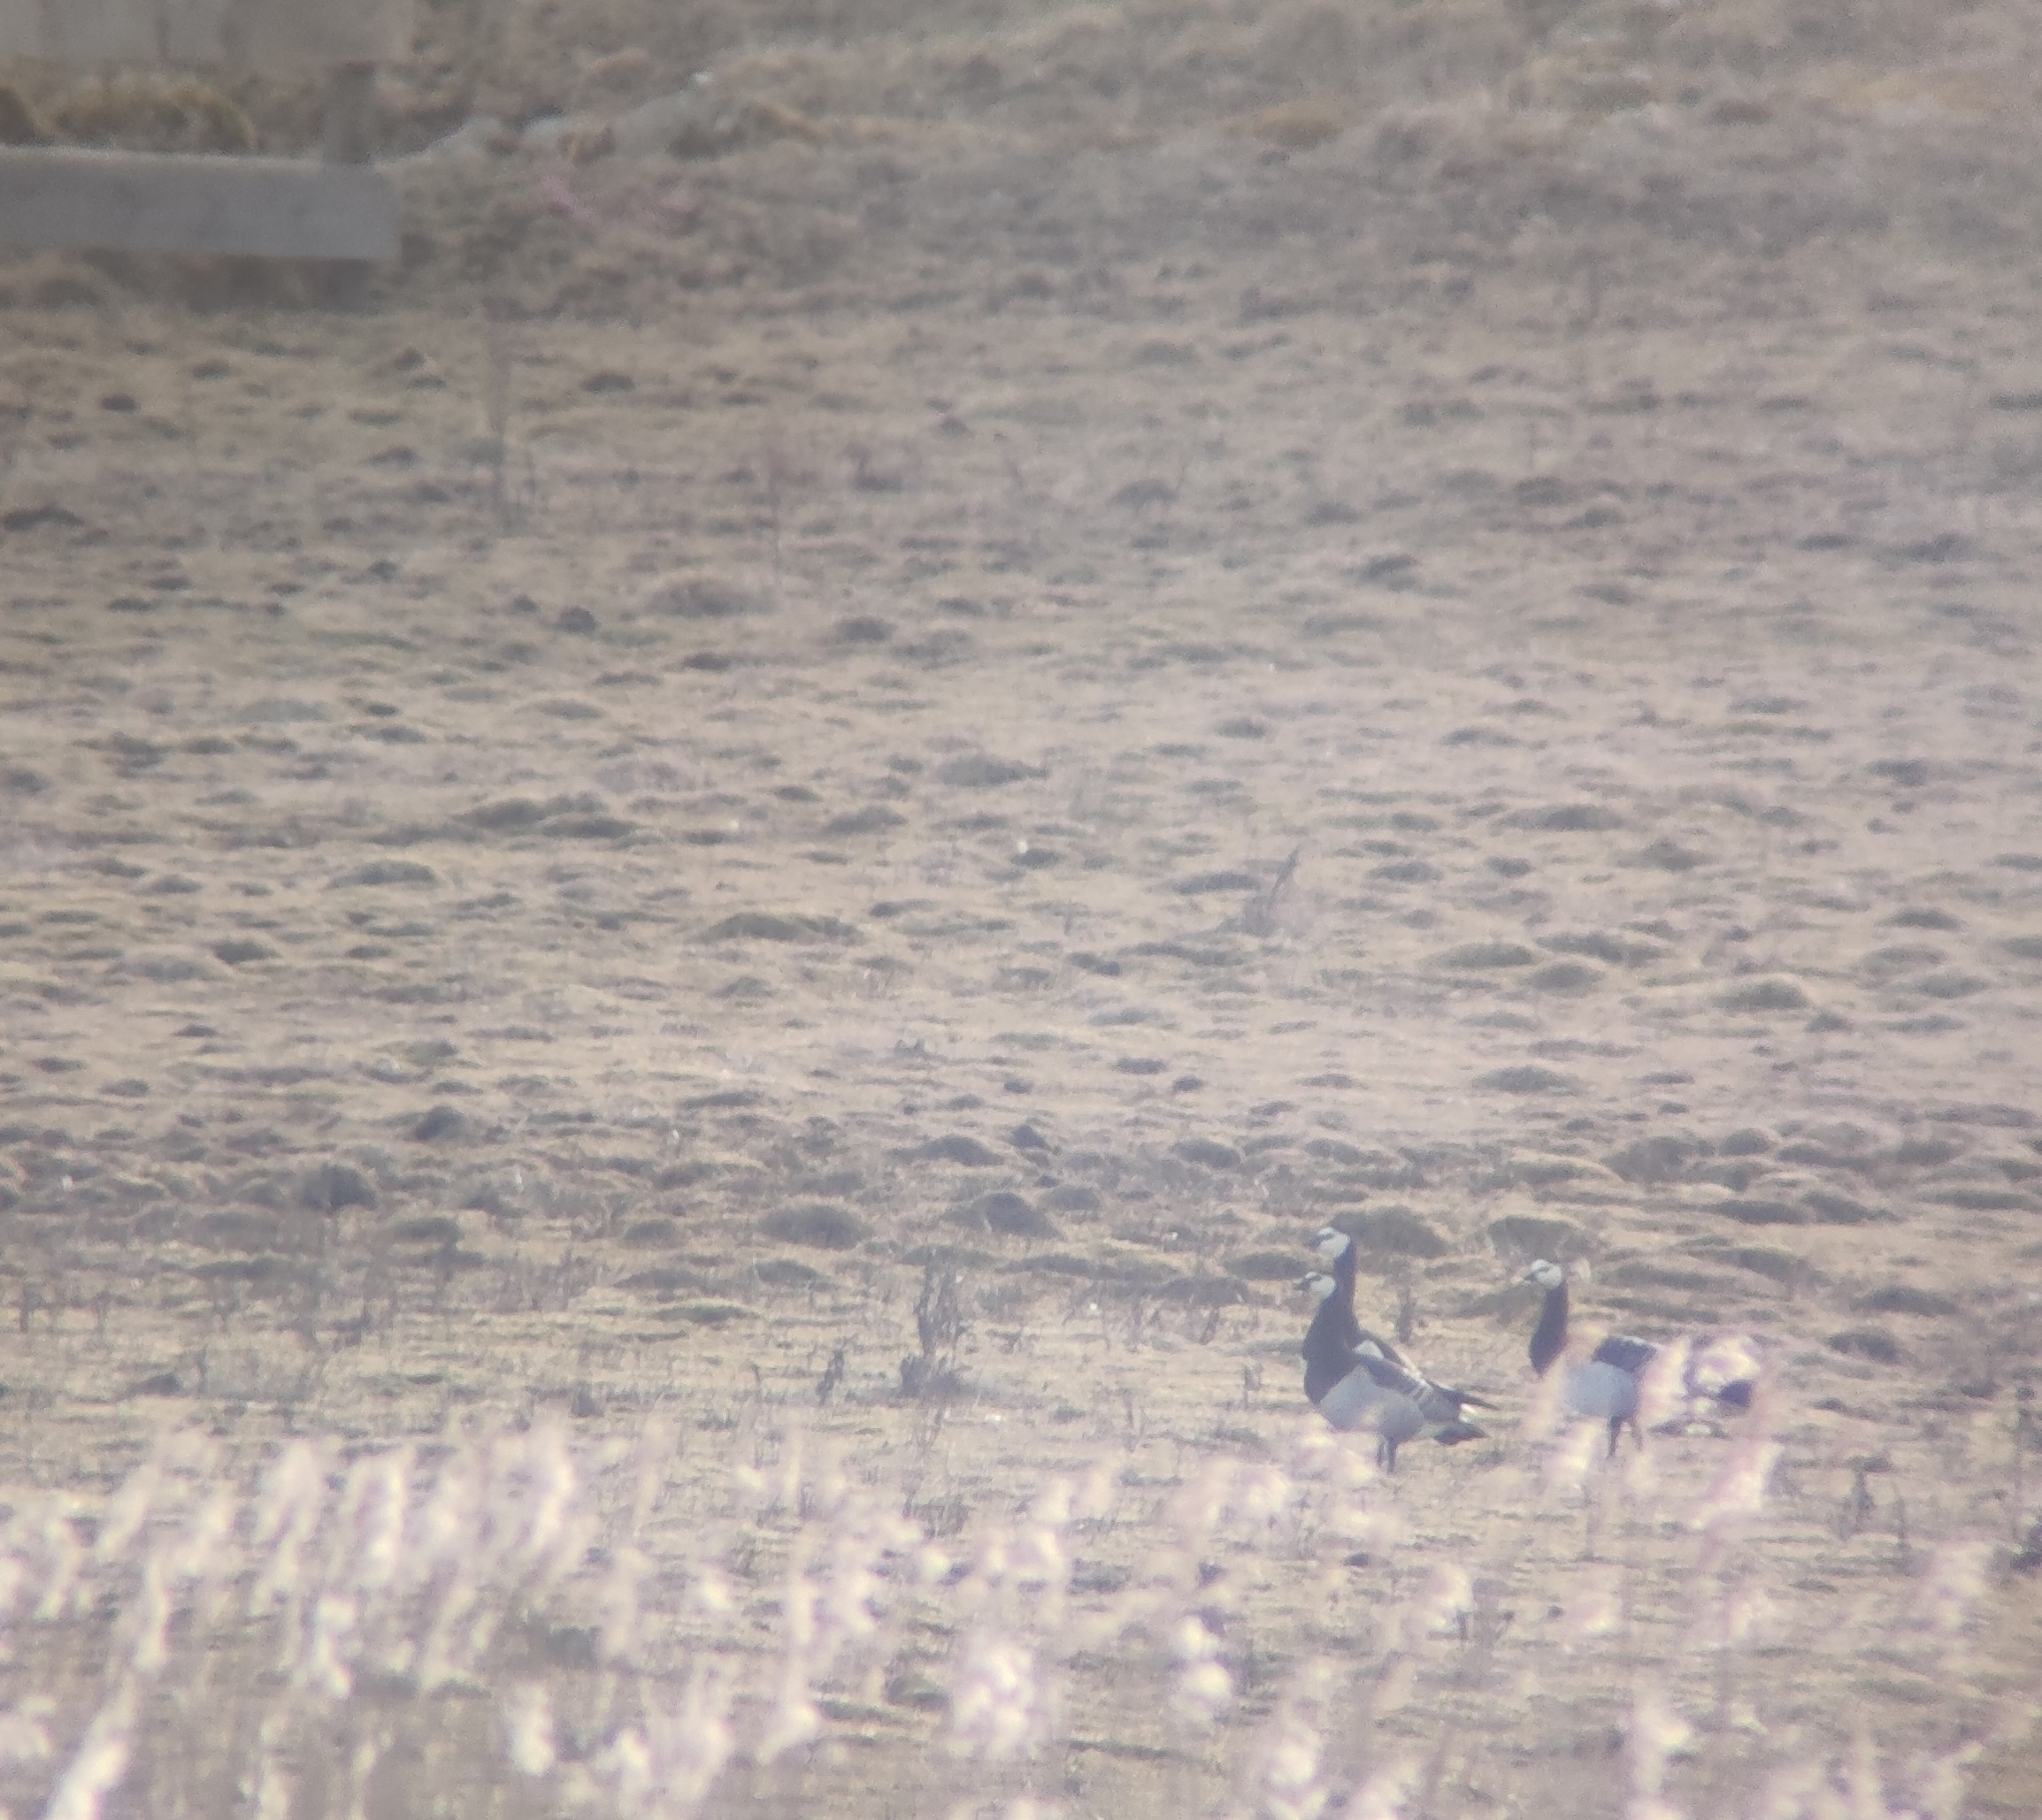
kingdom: Animalia
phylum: Chordata
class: Aves
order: Anseriformes
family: Anatidae
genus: Branta
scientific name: Branta leucopsis
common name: Barnacle goose
